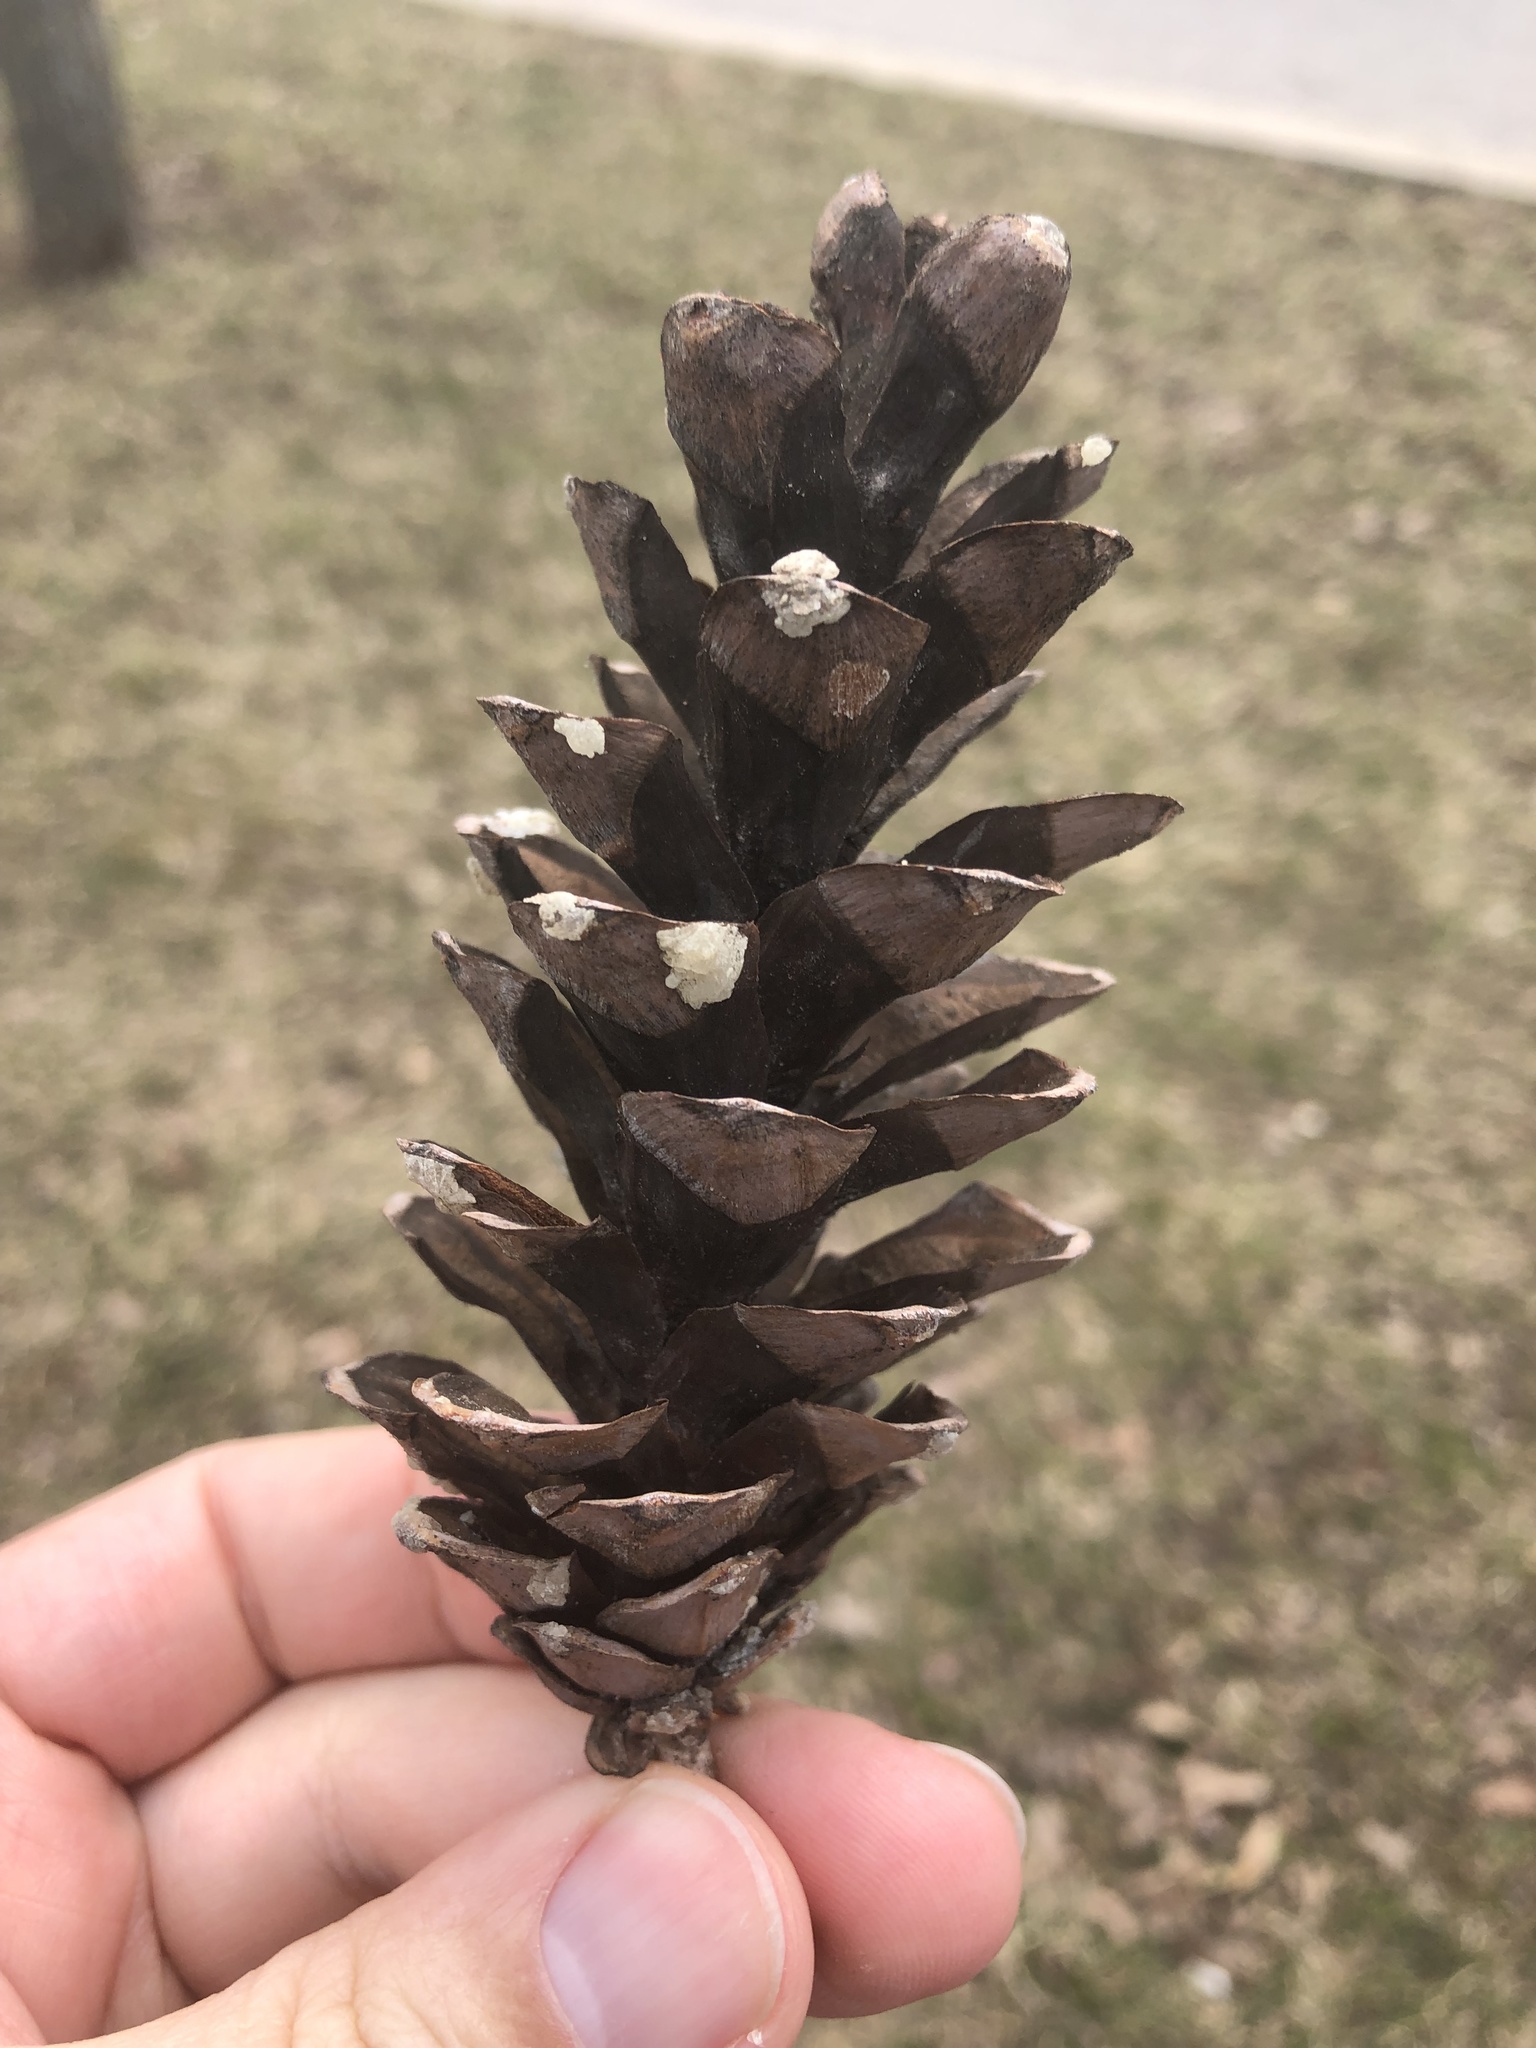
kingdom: Plantae
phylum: Tracheophyta
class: Pinopsida
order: Pinales
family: Pinaceae
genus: Pinus
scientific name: Pinus strobus
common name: Weymouth pine
